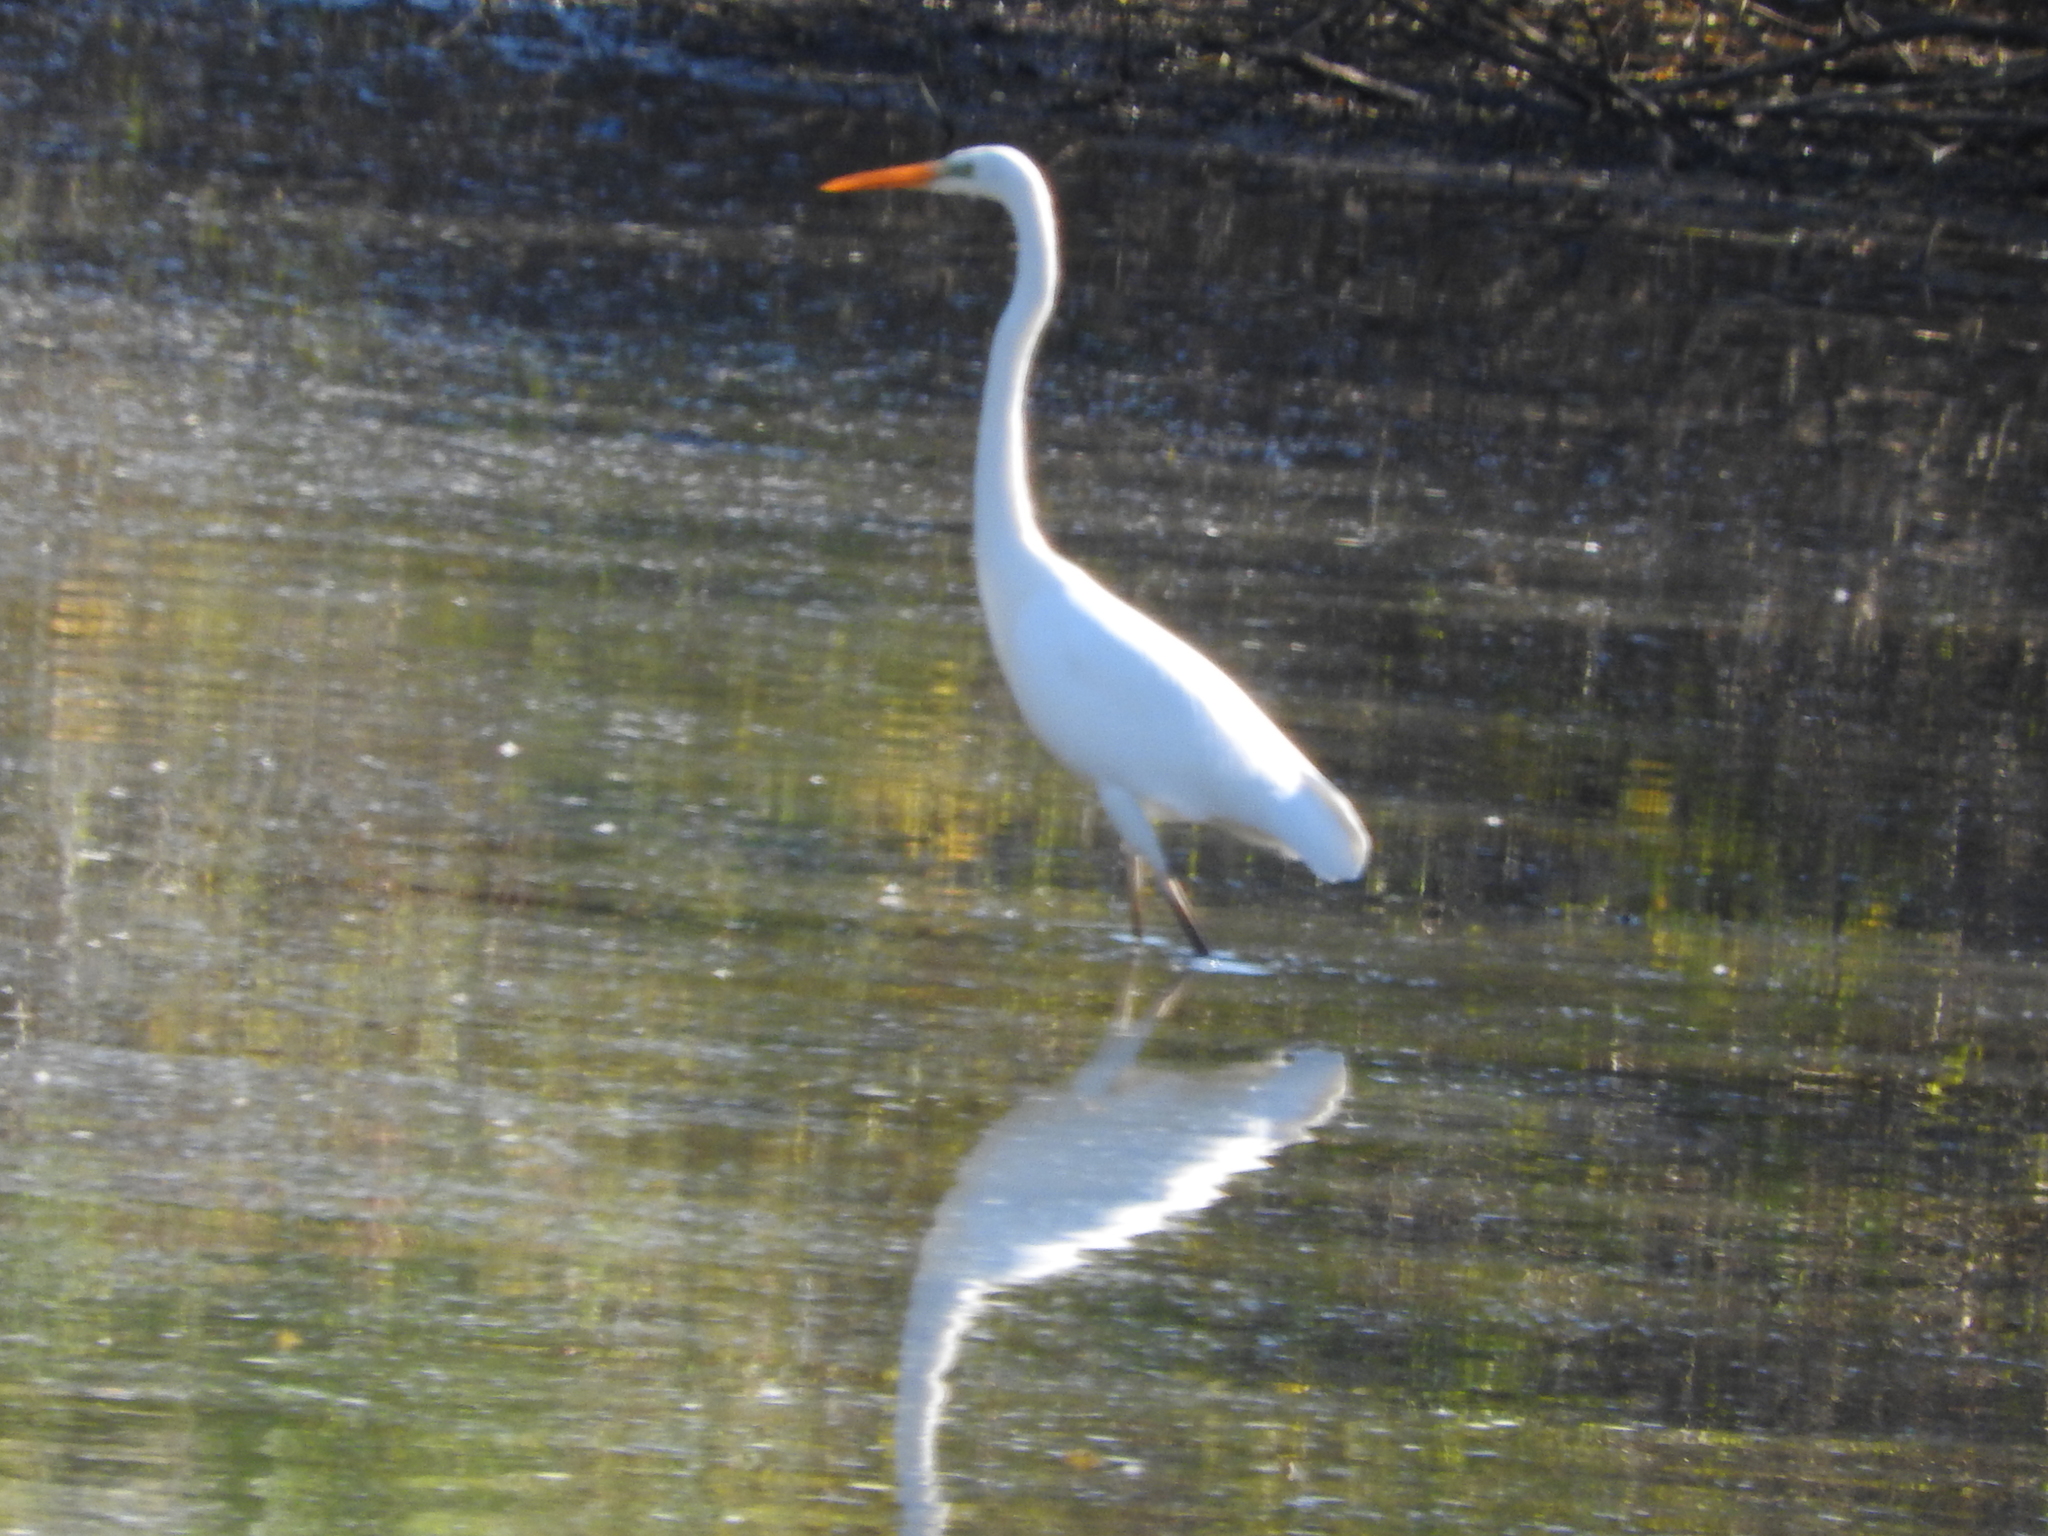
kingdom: Animalia
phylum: Chordata
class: Aves
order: Pelecaniformes
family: Ardeidae
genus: Ardea
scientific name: Ardea alba
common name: Great egret
